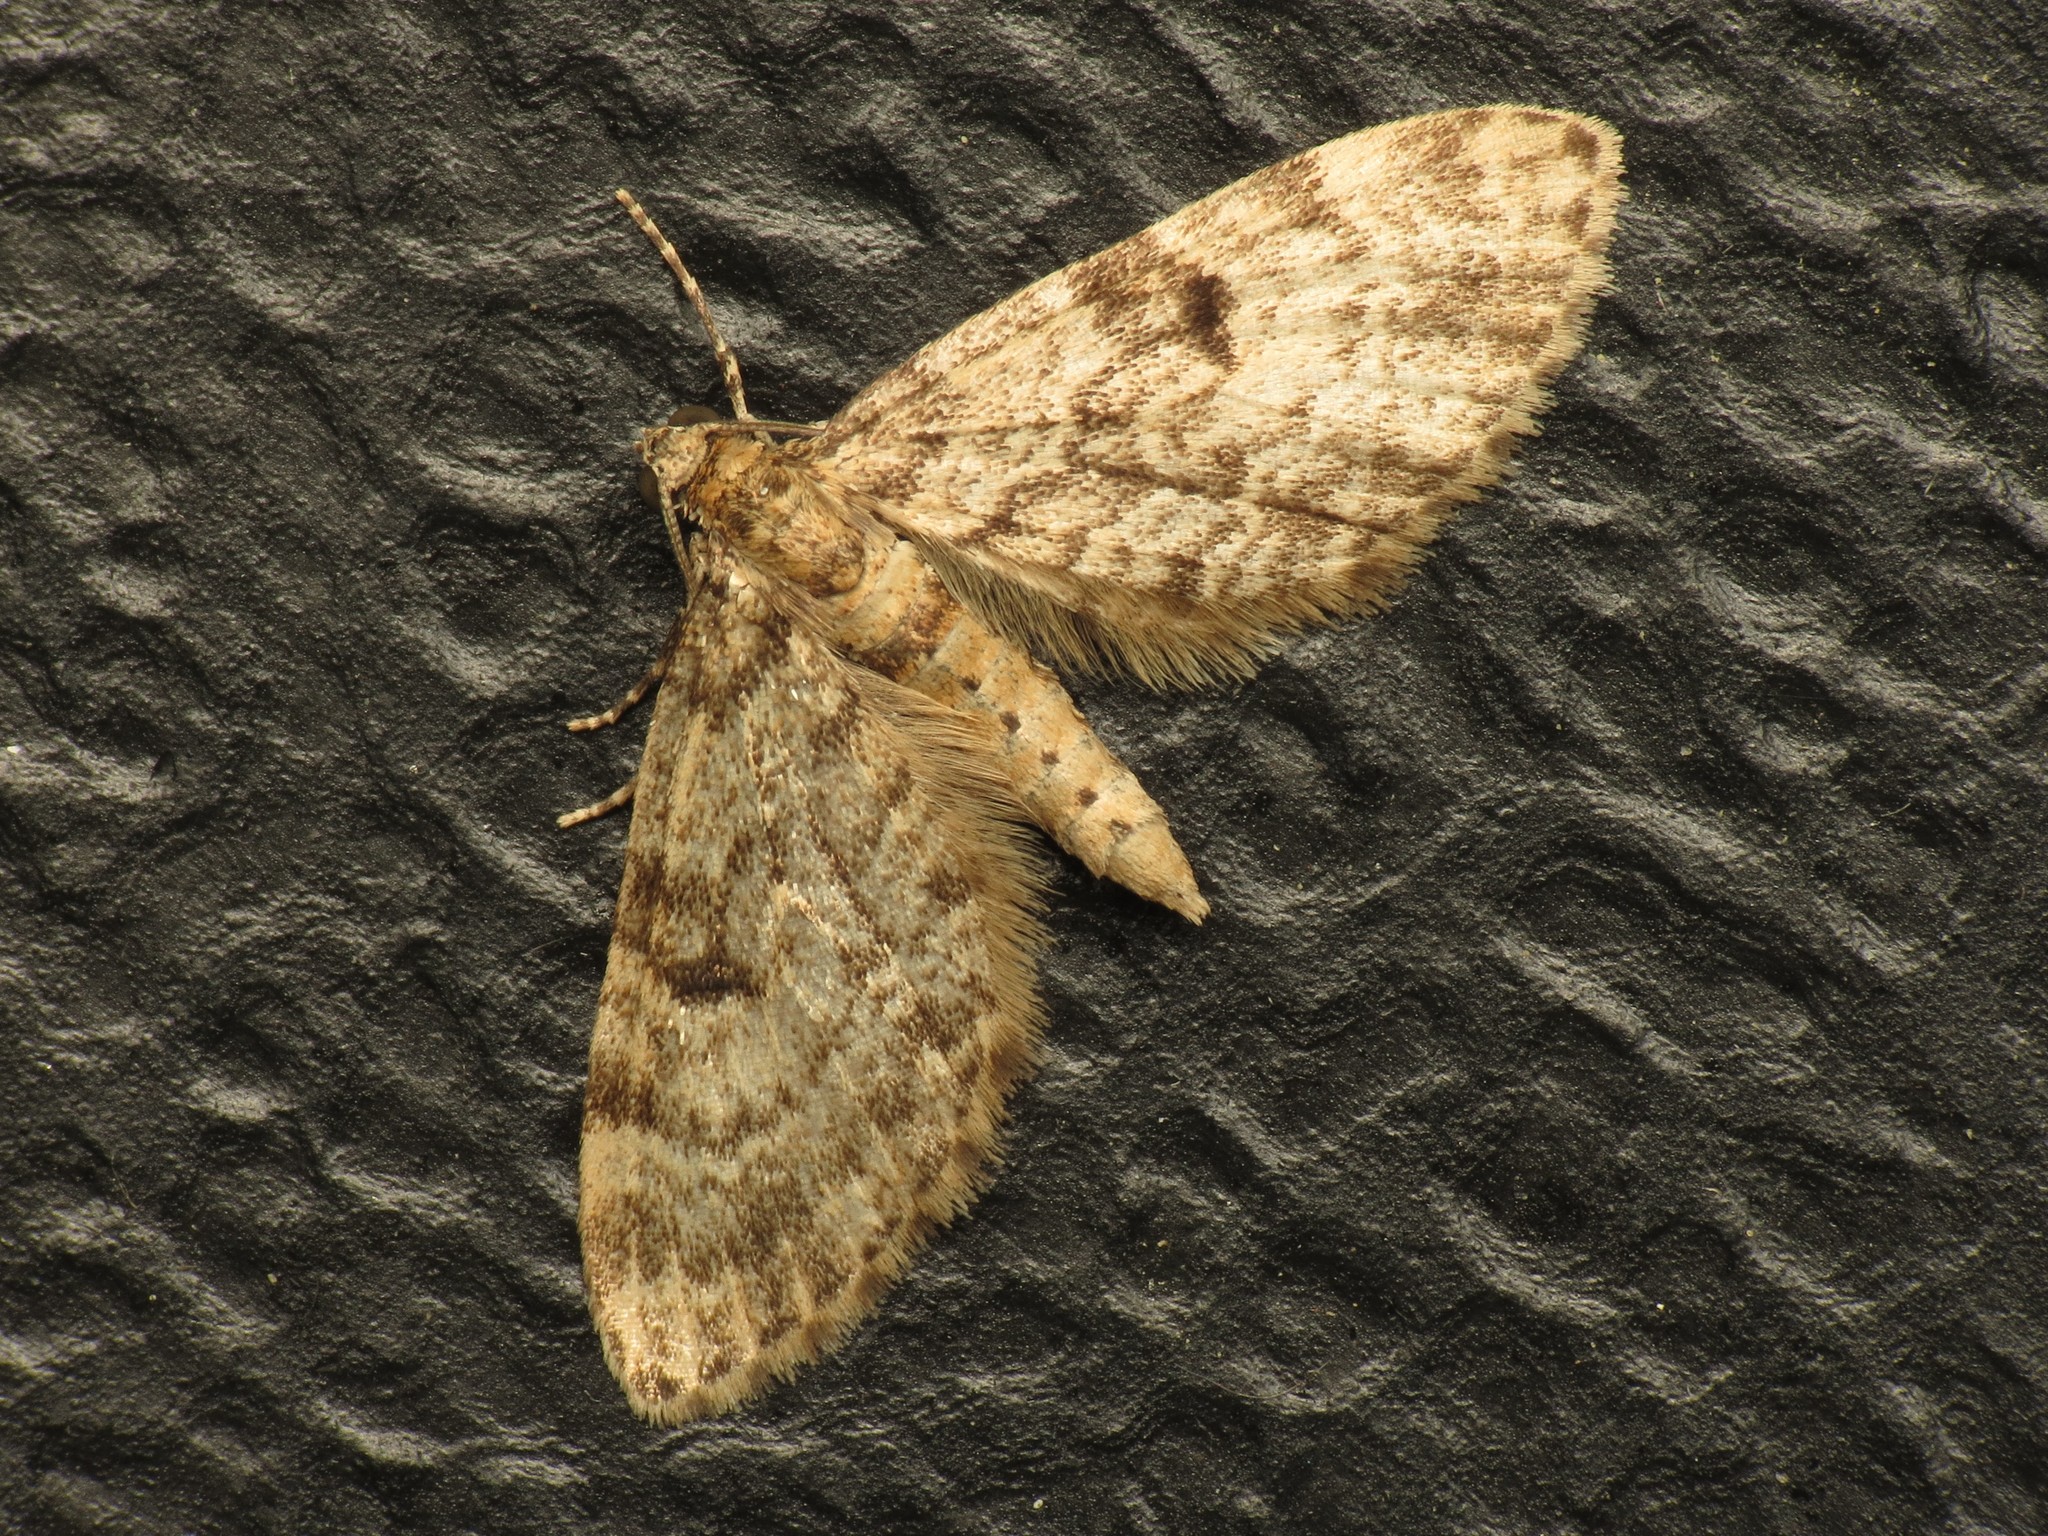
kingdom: Animalia
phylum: Arthropoda
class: Insecta
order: Lepidoptera
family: Geometridae
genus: Eupithecia
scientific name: Eupithecia tantillaria
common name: Dwarf pug
